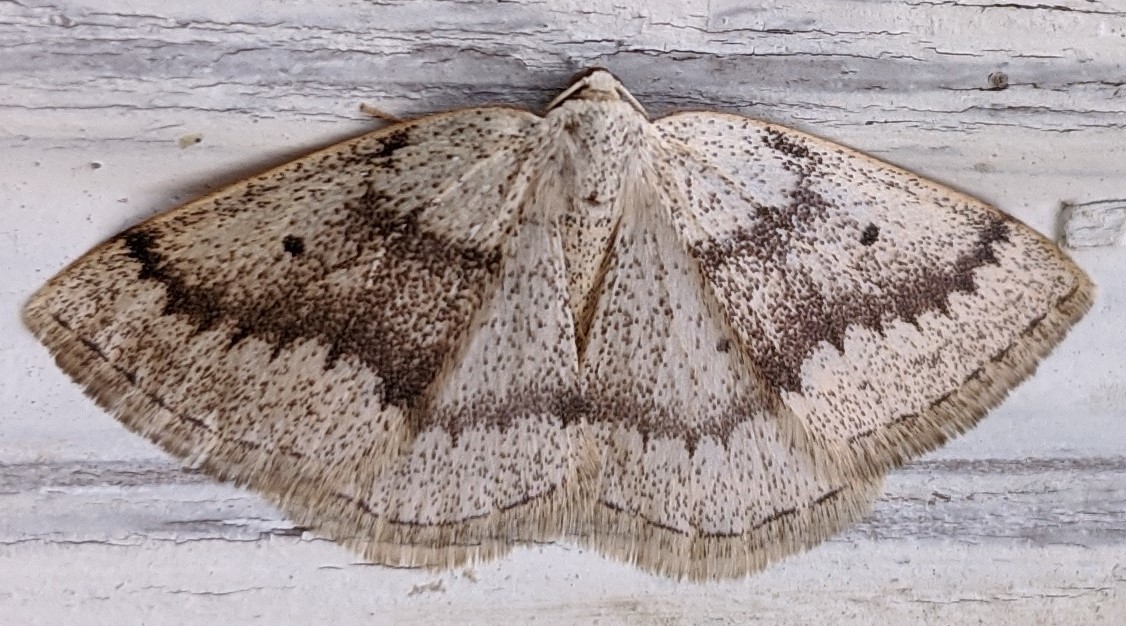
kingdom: Animalia
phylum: Arthropoda
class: Insecta
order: Lepidoptera
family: Geometridae
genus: Lomographa
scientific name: Lomographa glomeraria
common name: Gray spring moth
